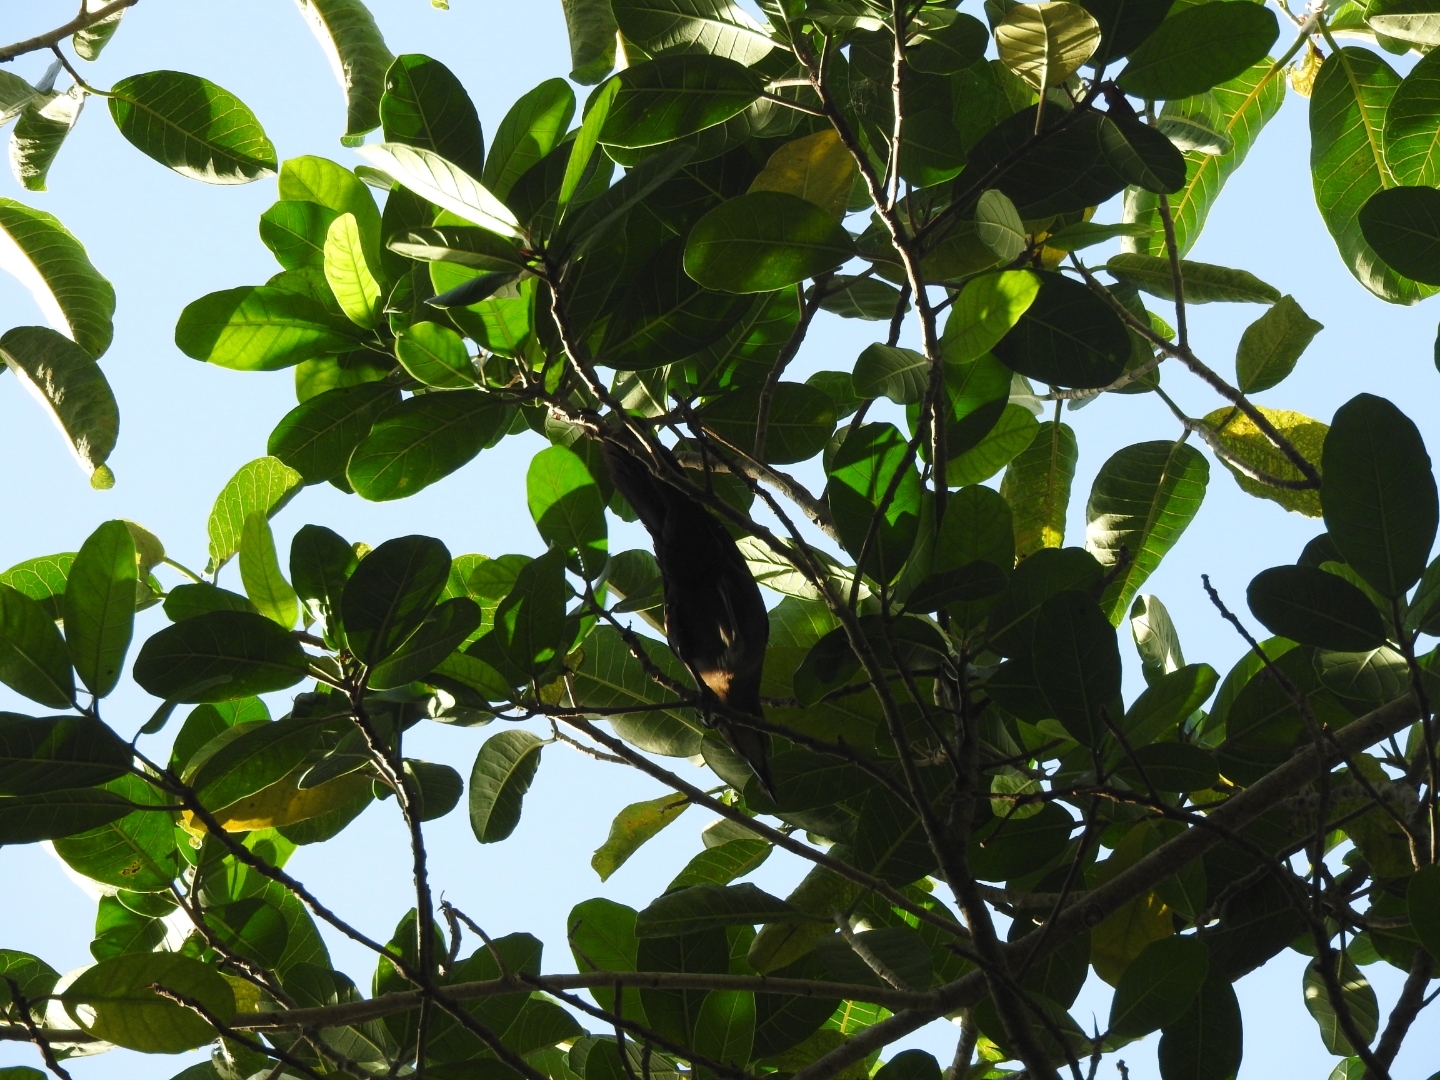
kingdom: Animalia
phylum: Chordata
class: Aves
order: Passeriformes
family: Icteridae
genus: Quiscalus
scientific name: Quiscalus mexicanus
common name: Great-tailed grackle
